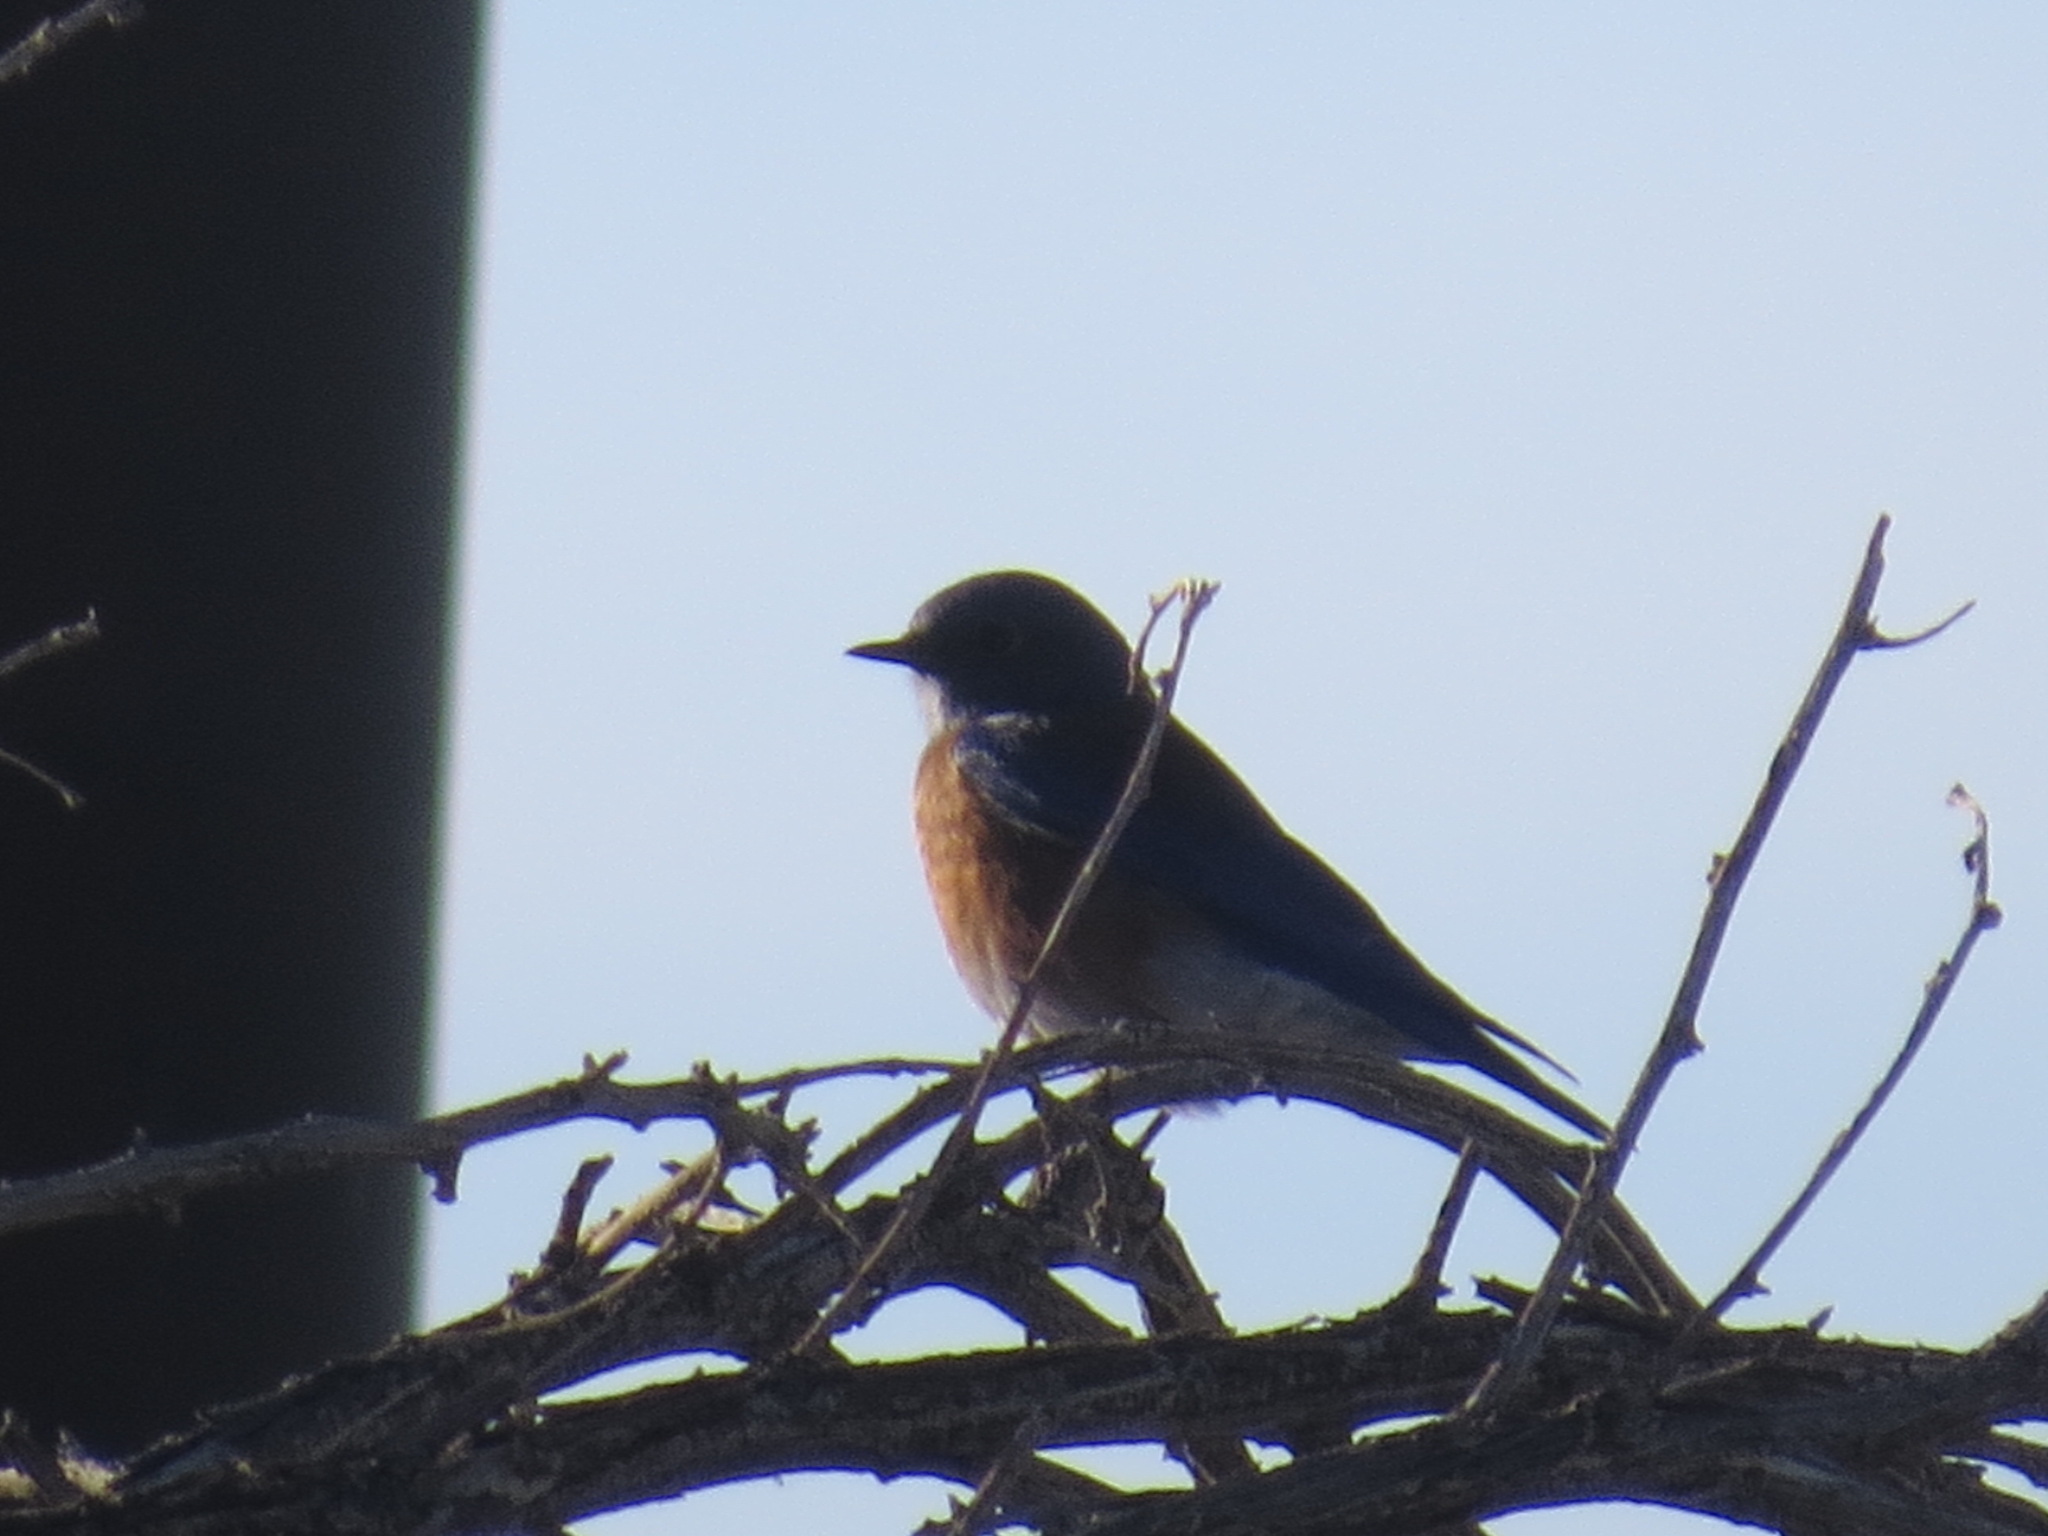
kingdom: Animalia
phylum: Chordata
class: Aves
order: Passeriformes
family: Turdidae
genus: Sialia
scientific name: Sialia mexicana
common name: Western bluebird
